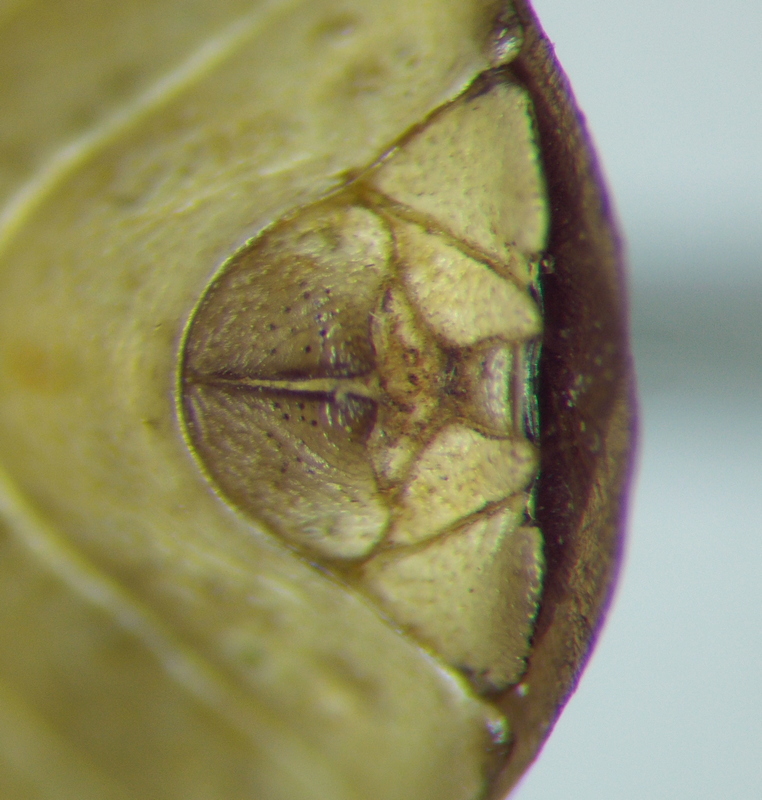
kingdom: Animalia
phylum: Arthropoda
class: Insecta
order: Hemiptera
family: Pentatomidae
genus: Euschistus
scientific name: Euschistus
